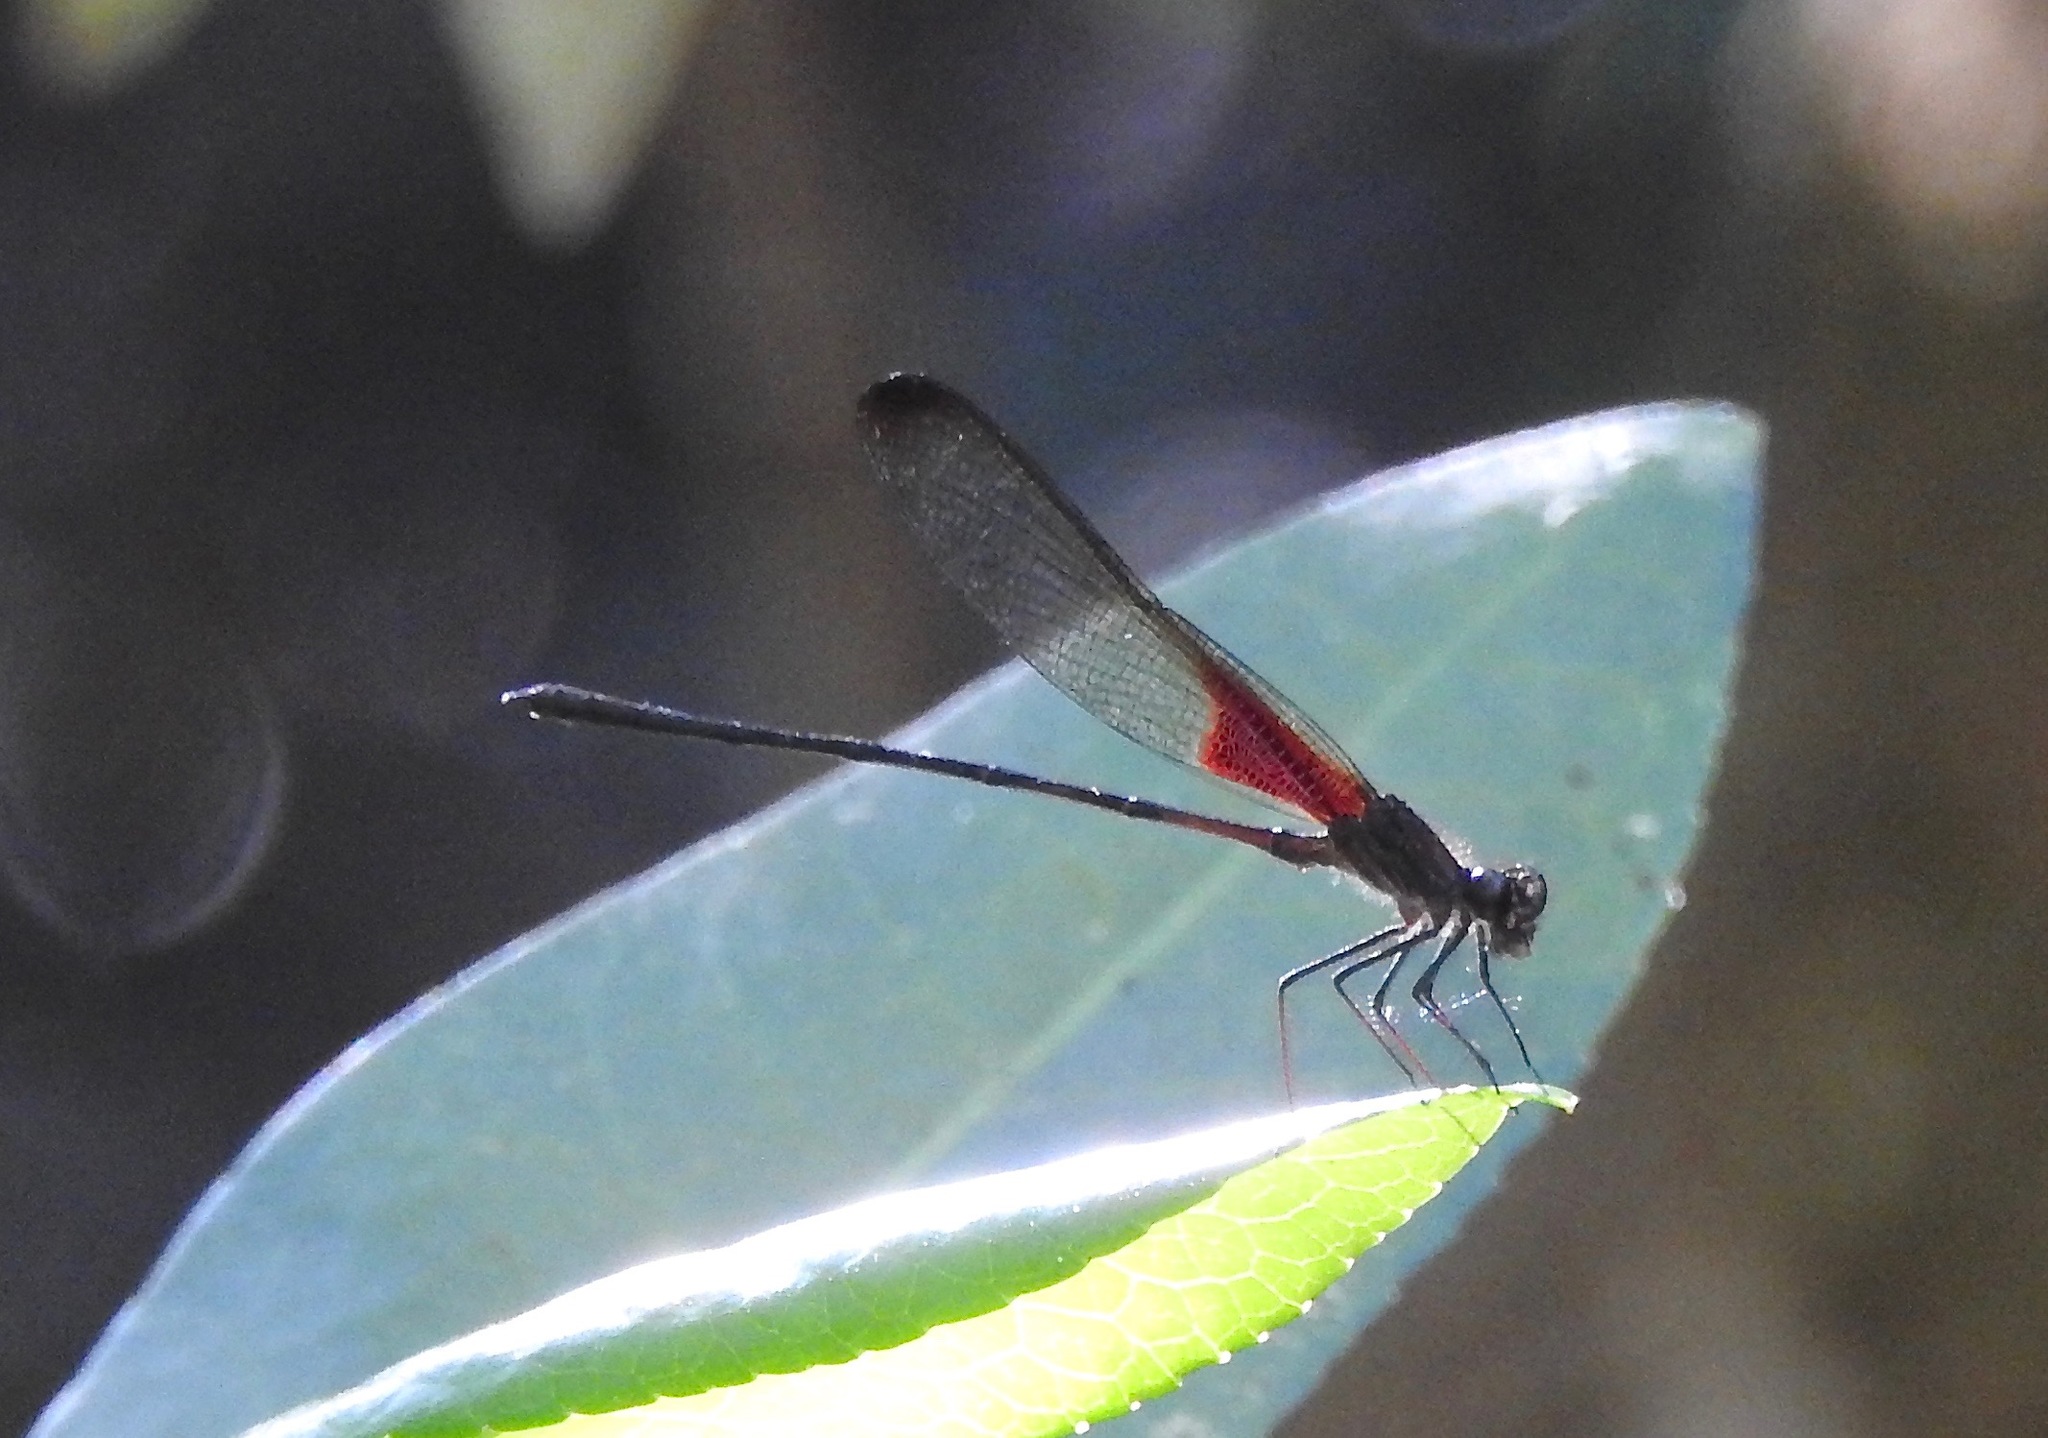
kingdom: Animalia
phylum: Arthropoda
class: Insecta
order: Odonata
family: Calopterygidae
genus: Hetaerina
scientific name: Hetaerina titia
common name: Smoky rubyspot
